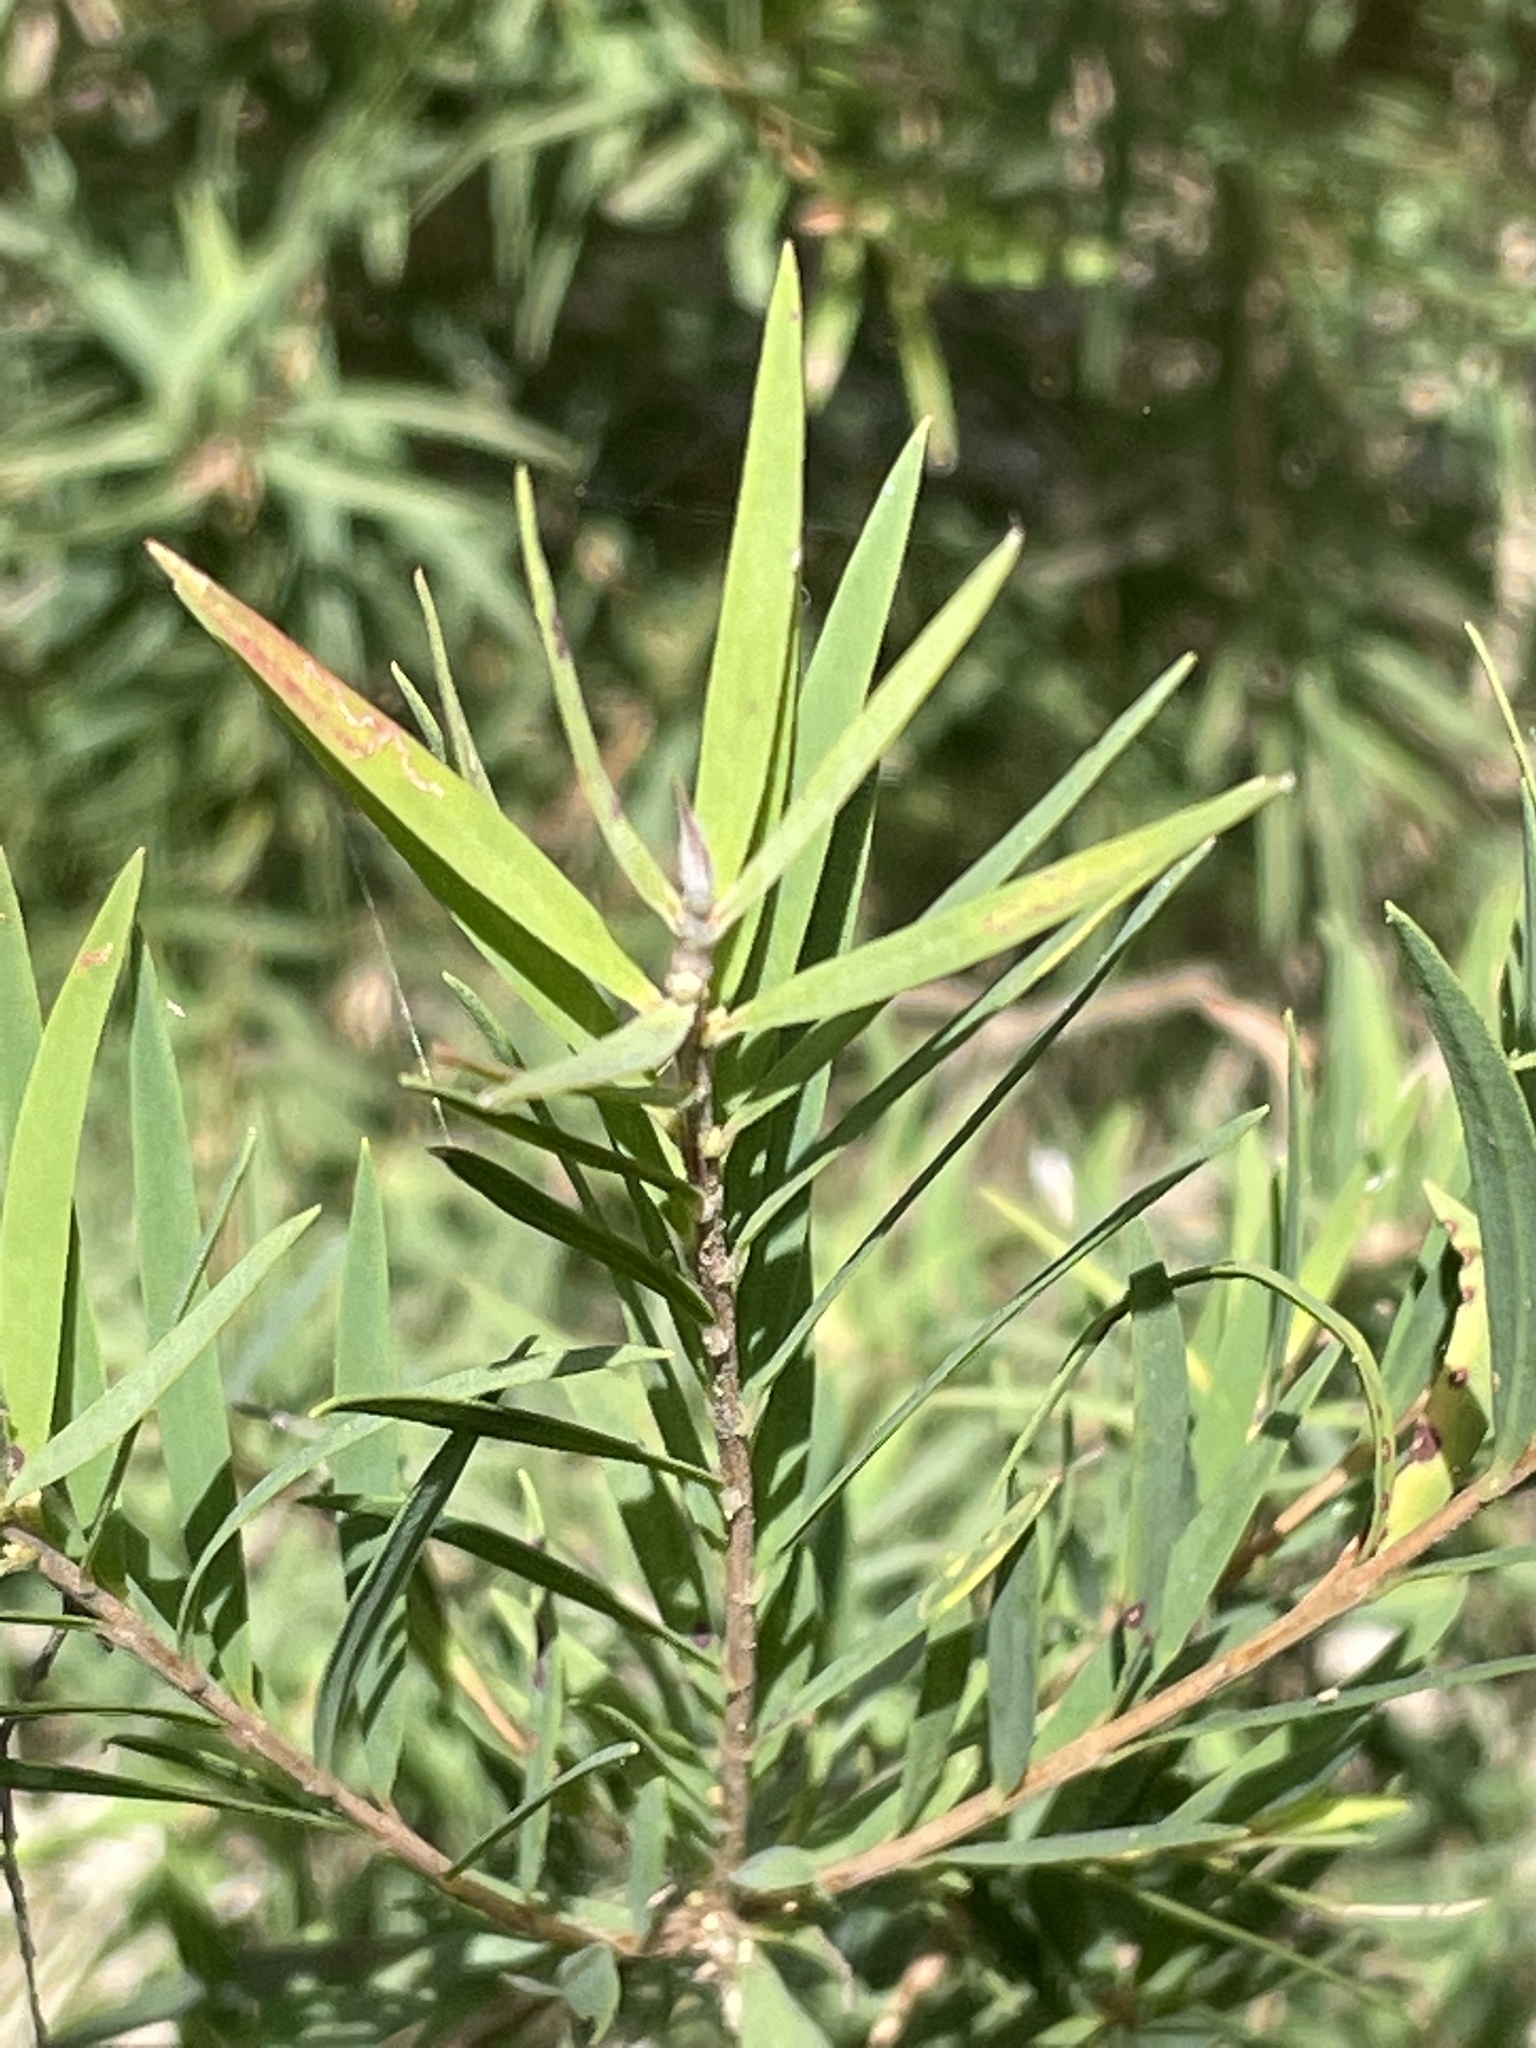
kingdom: Plantae
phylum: Tracheophyta
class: Magnoliopsida
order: Myrtales
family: Myrtaceae
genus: Melaleuca
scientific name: Melaleuca linariifolia
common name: Cajeput tree
